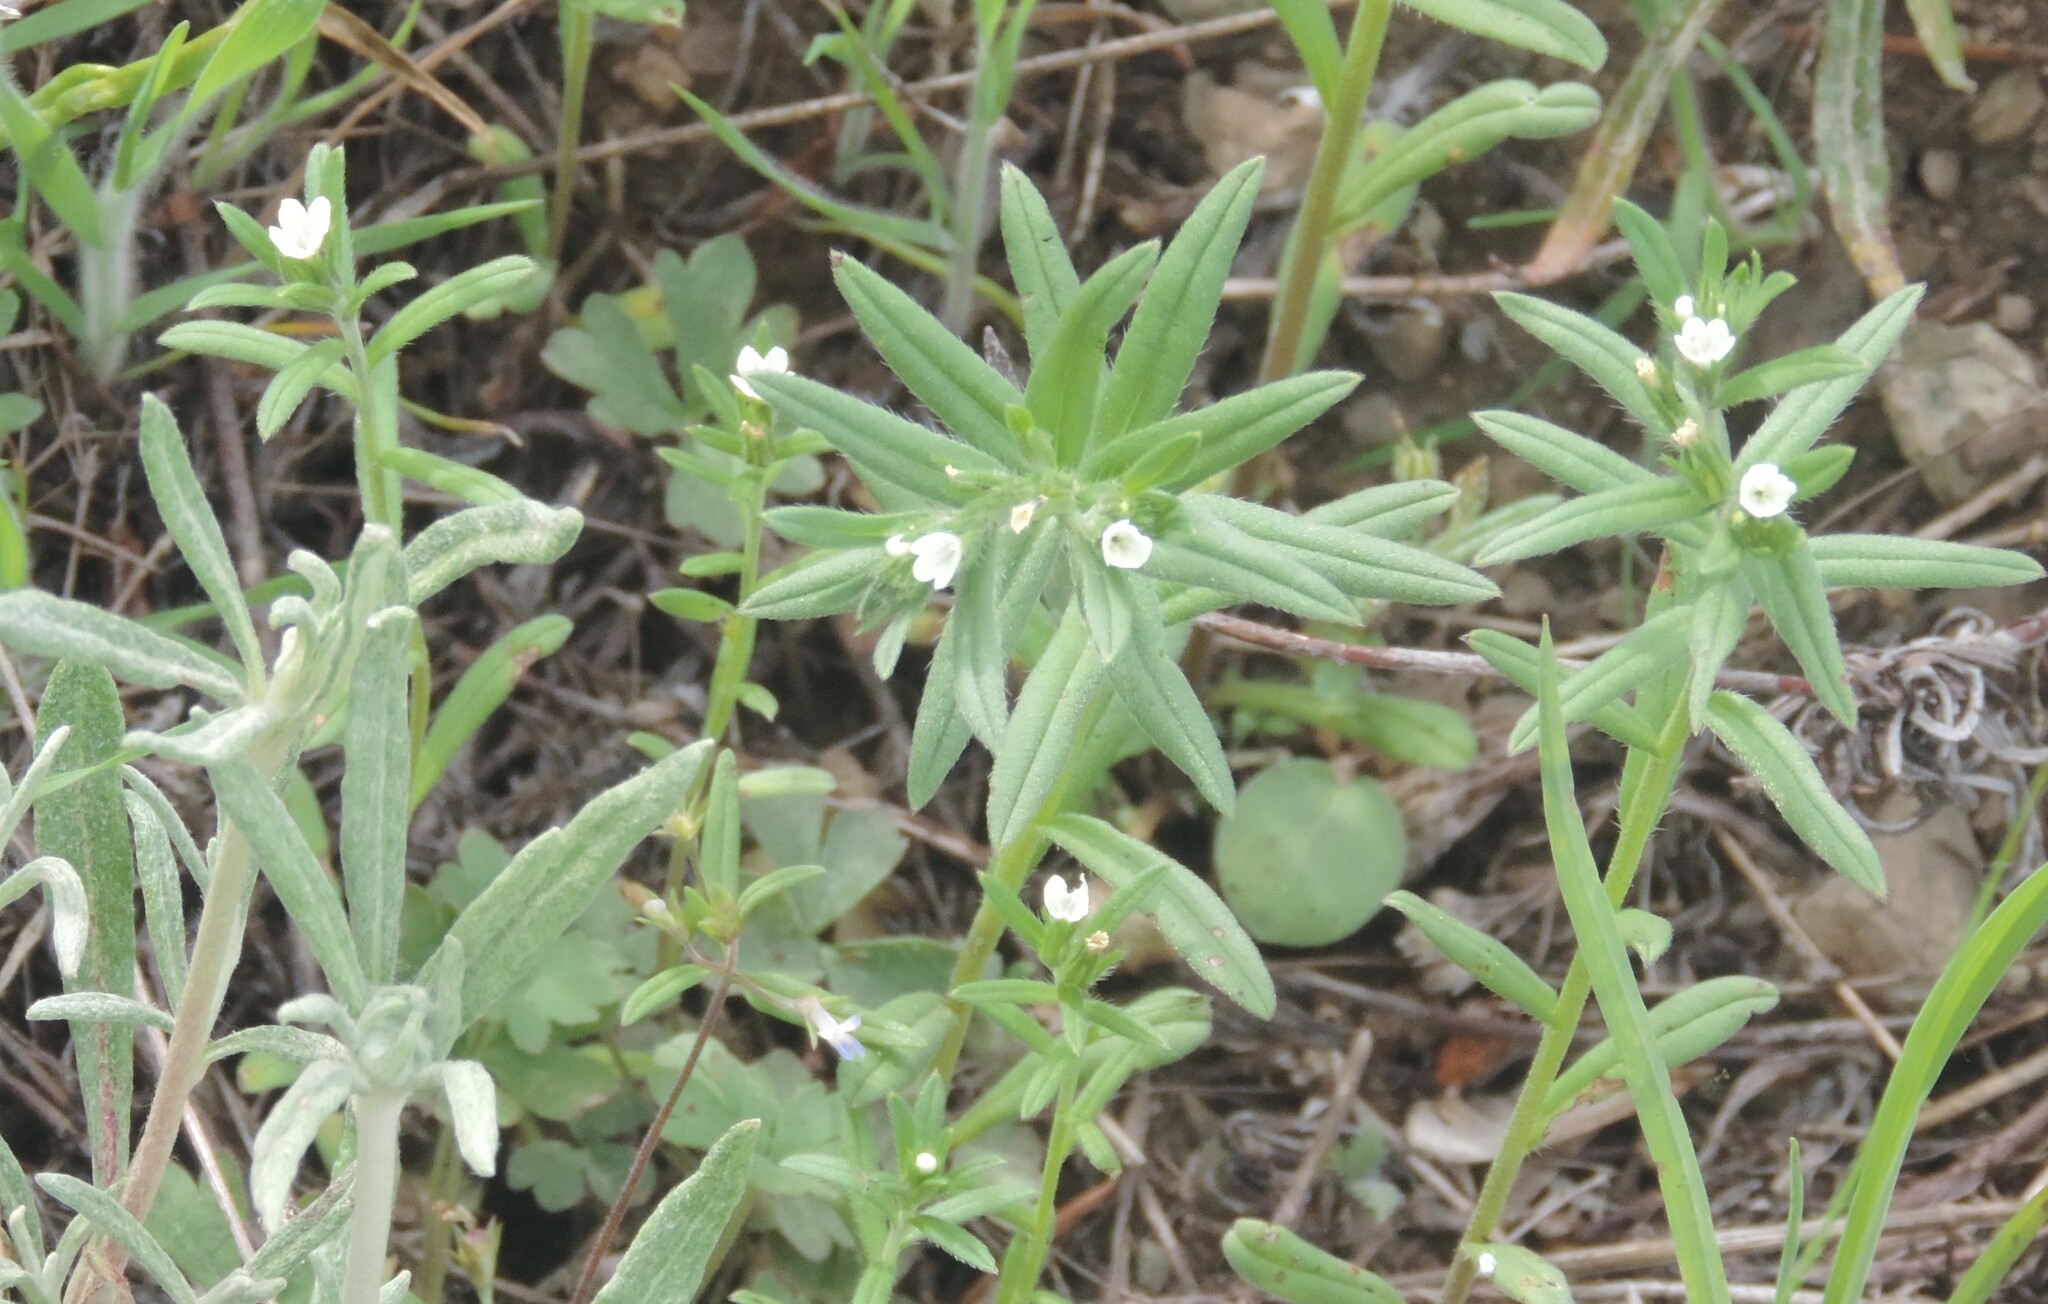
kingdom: Plantae
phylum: Tracheophyta
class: Magnoliopsida
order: Boraginales
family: Boraginaceae
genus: Buglossoides
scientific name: Buglossoides arvensis
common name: Corn gromwell
